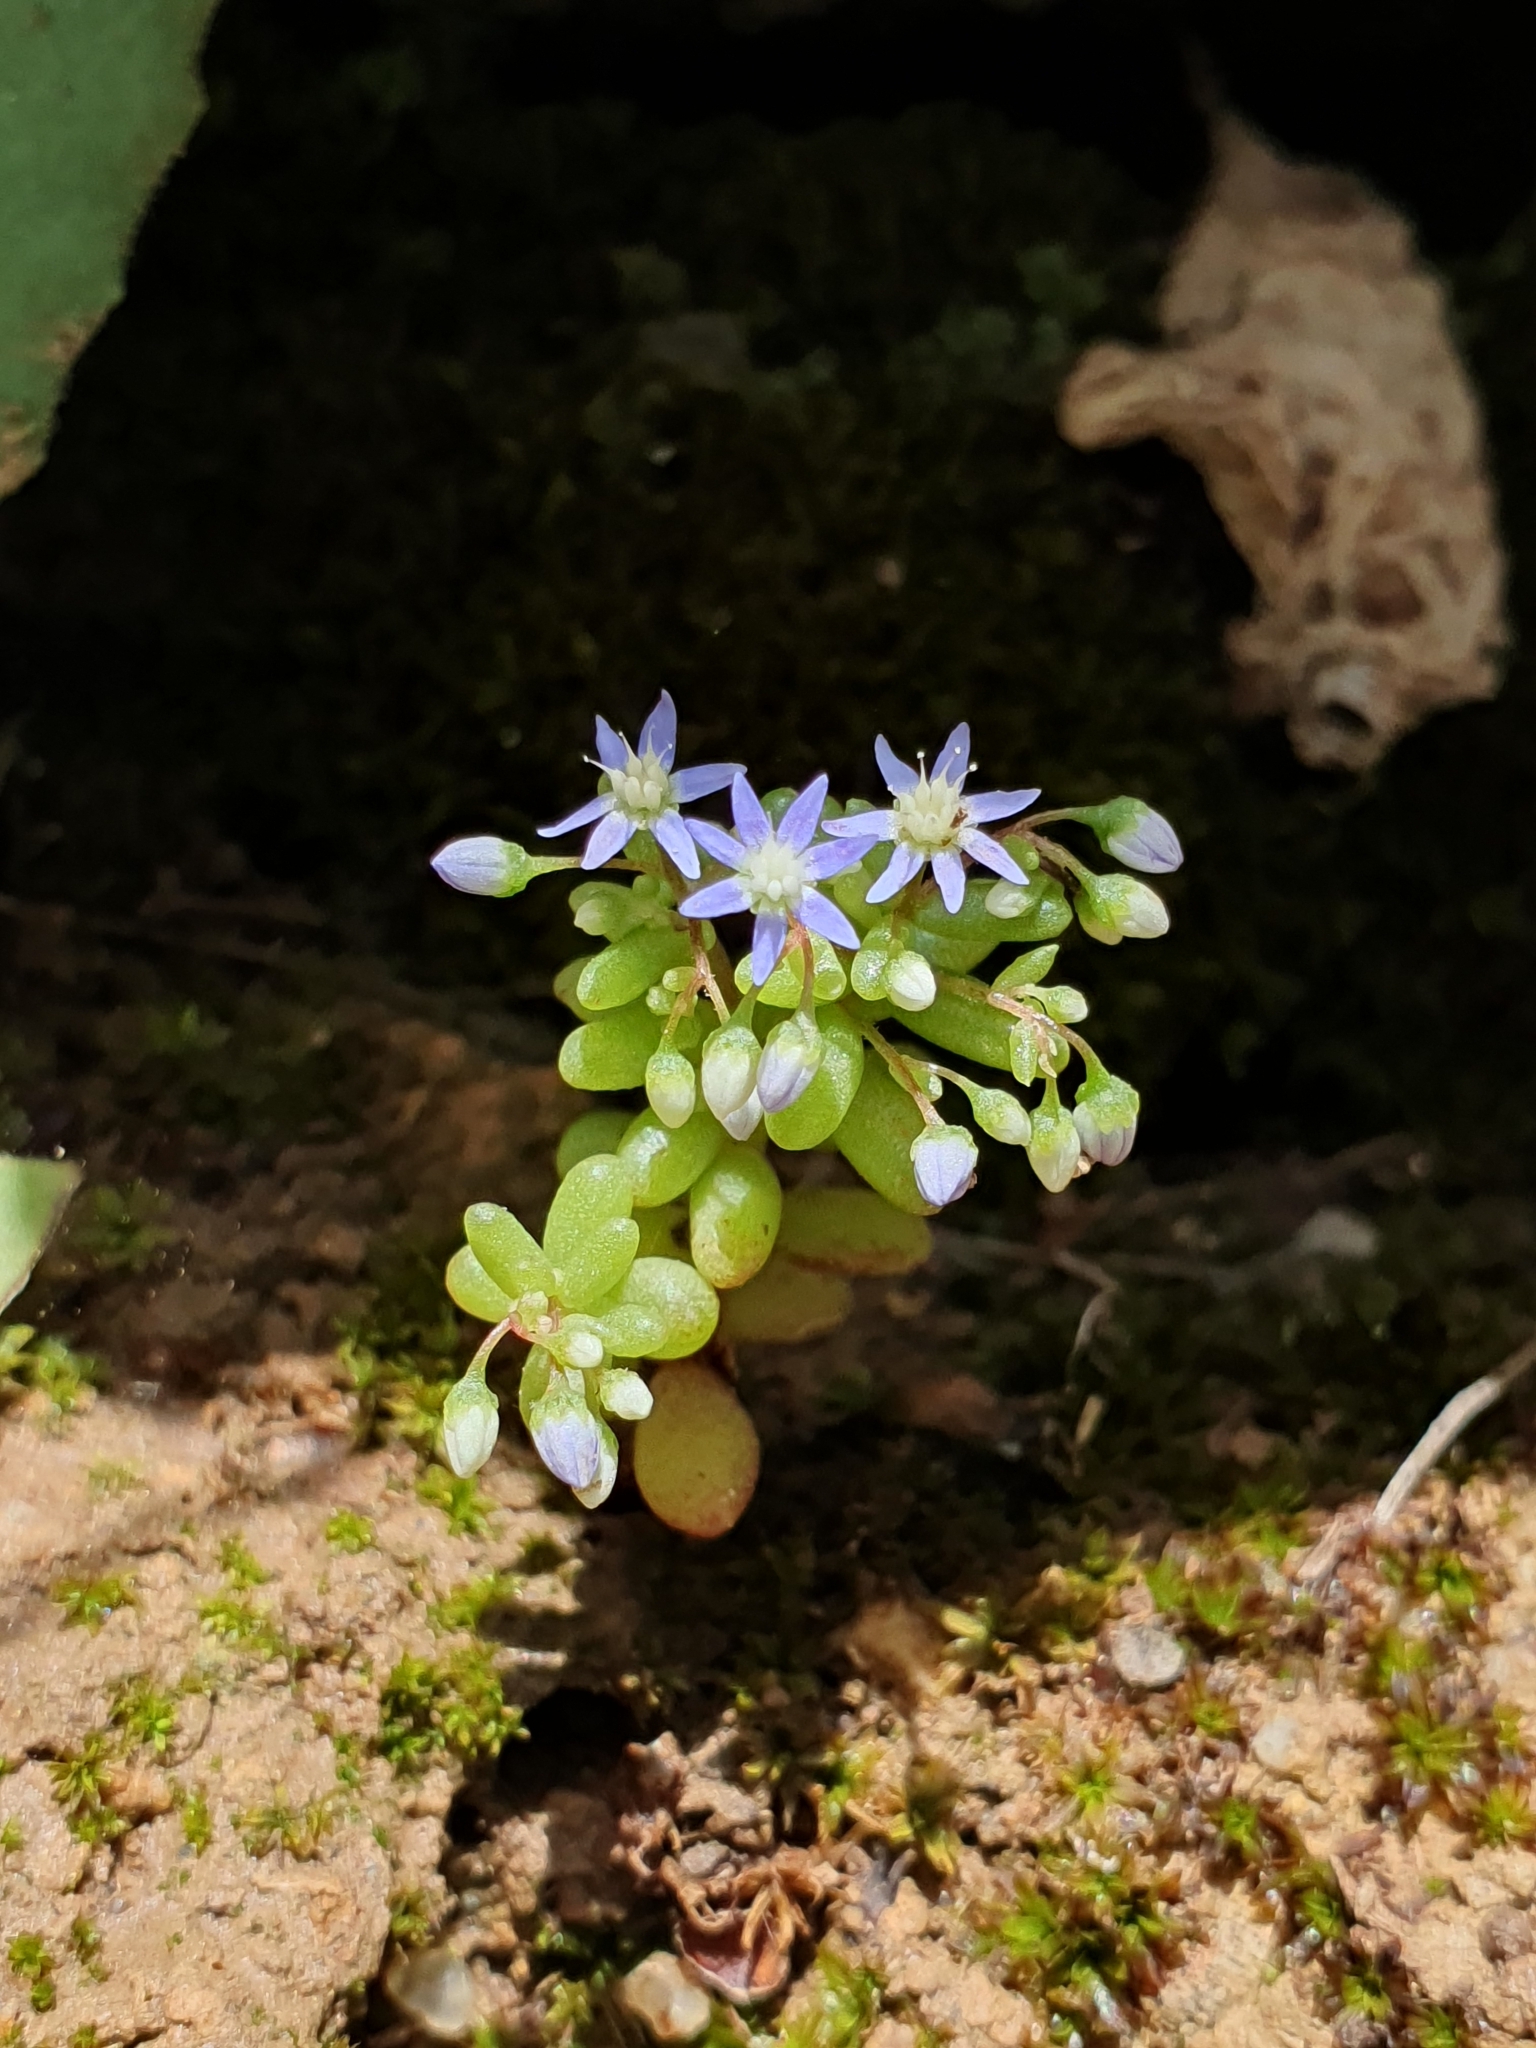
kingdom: Plantae
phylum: Tracheophyta
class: Magnoliopsida
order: Saxifragales
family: Crassulaceae
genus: Sedum
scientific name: Sedum caeruleum
